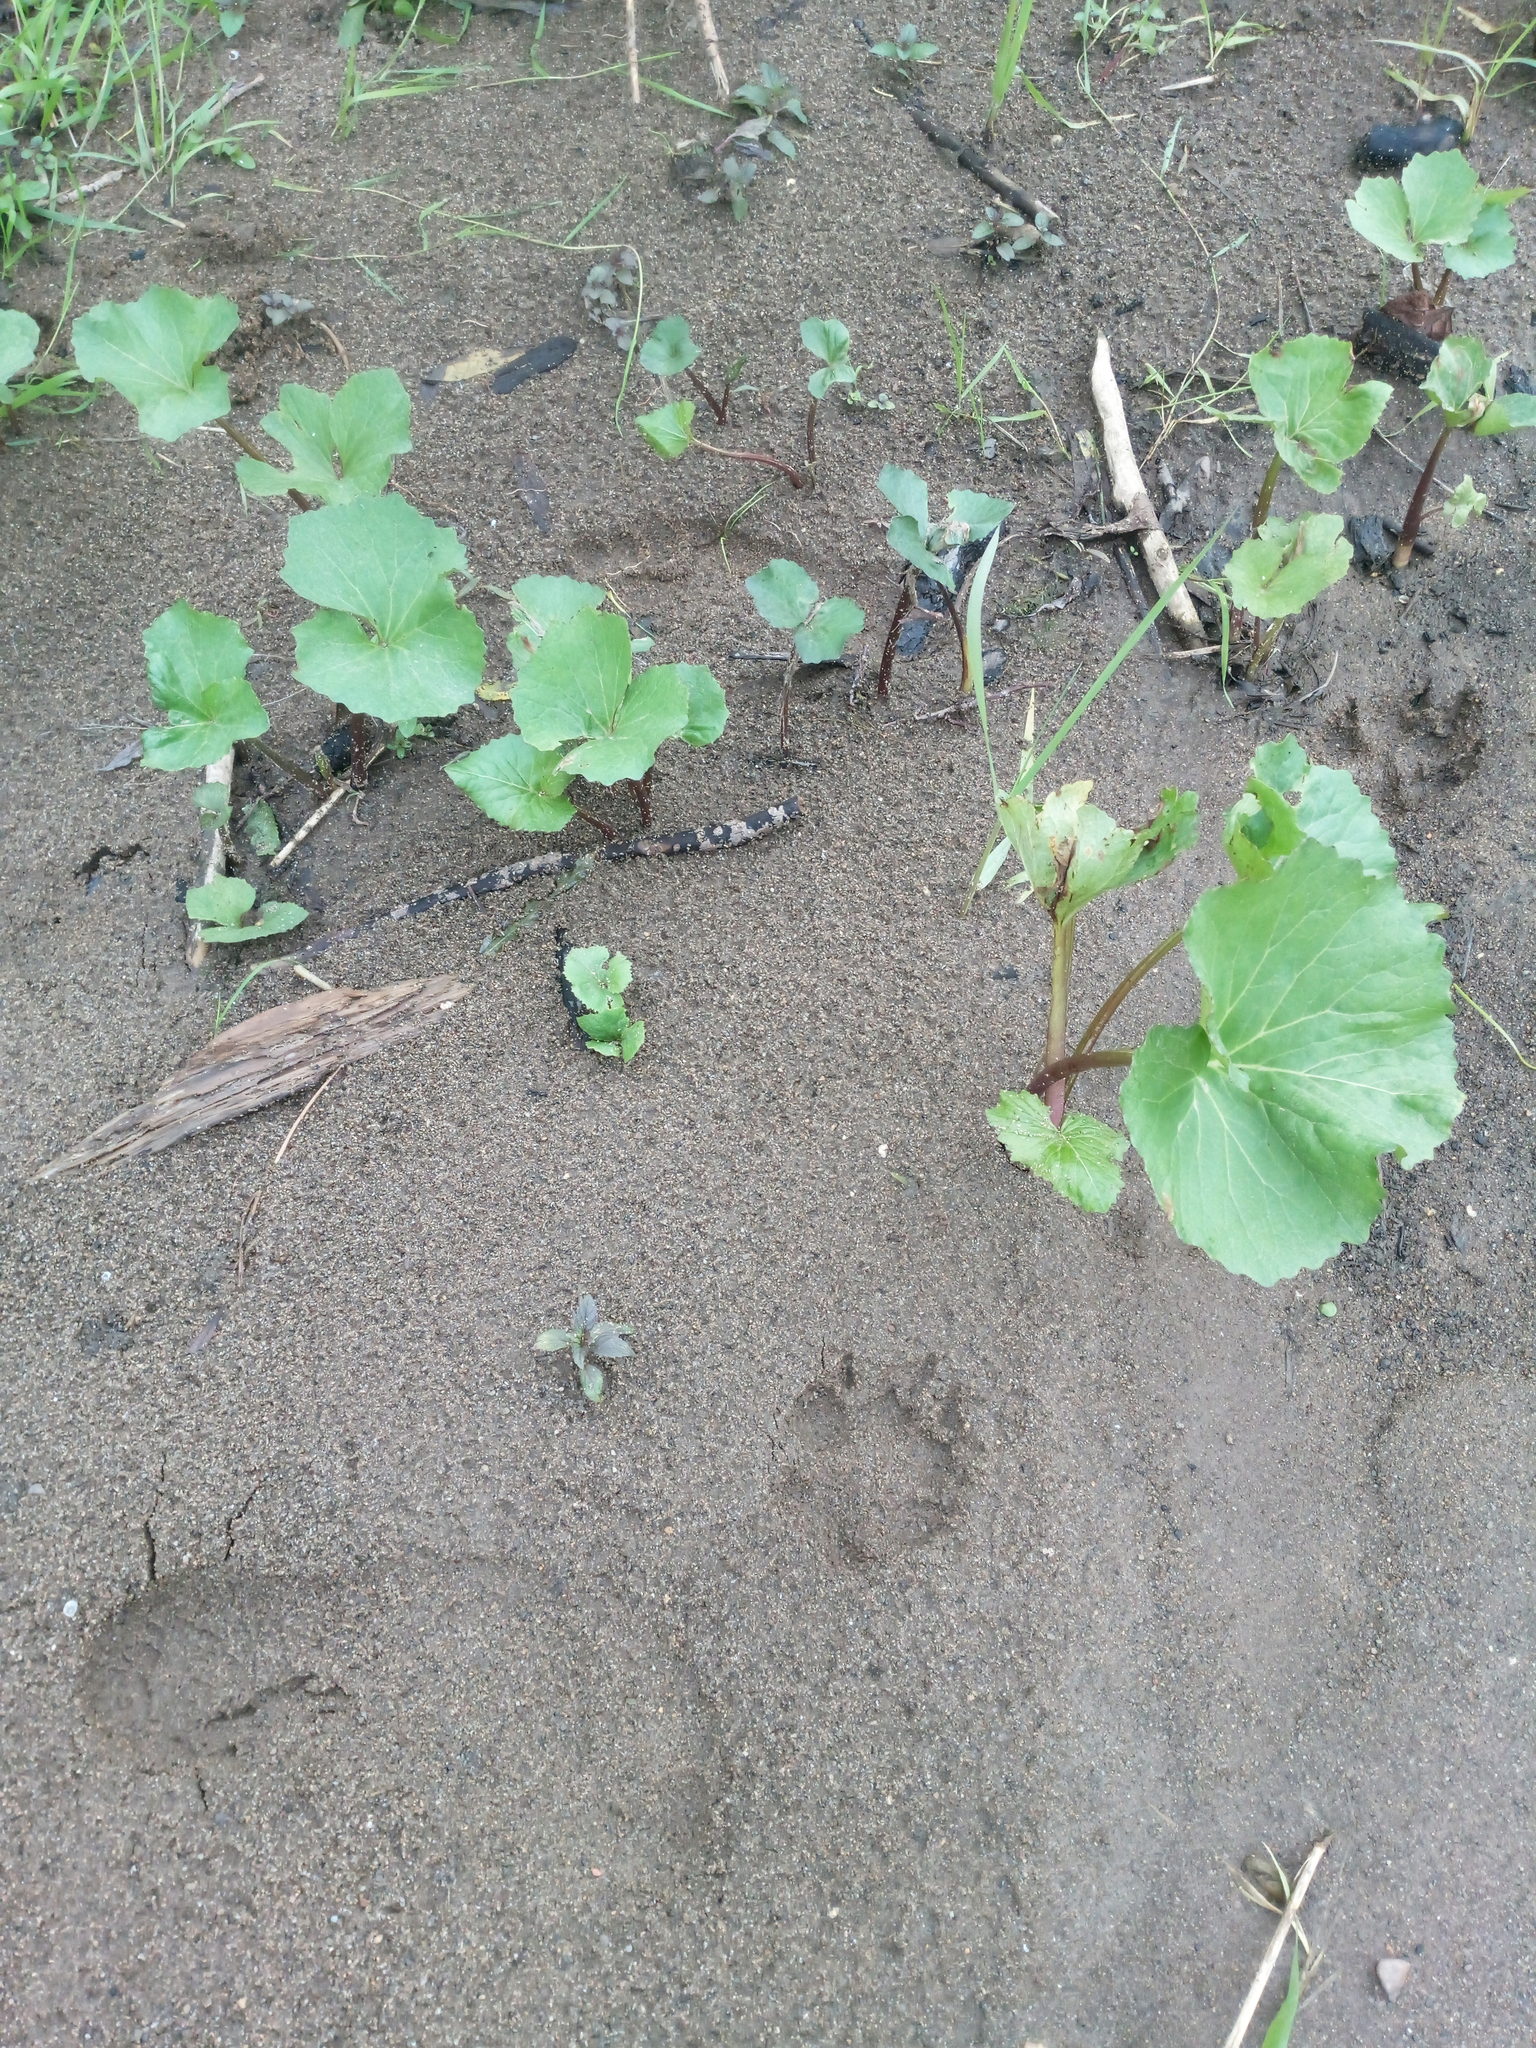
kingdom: Plantae
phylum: Tracheophyta
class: Magnoliopsida
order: Asterales
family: Asteraceae
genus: Petasites
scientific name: Petasites radiatus
